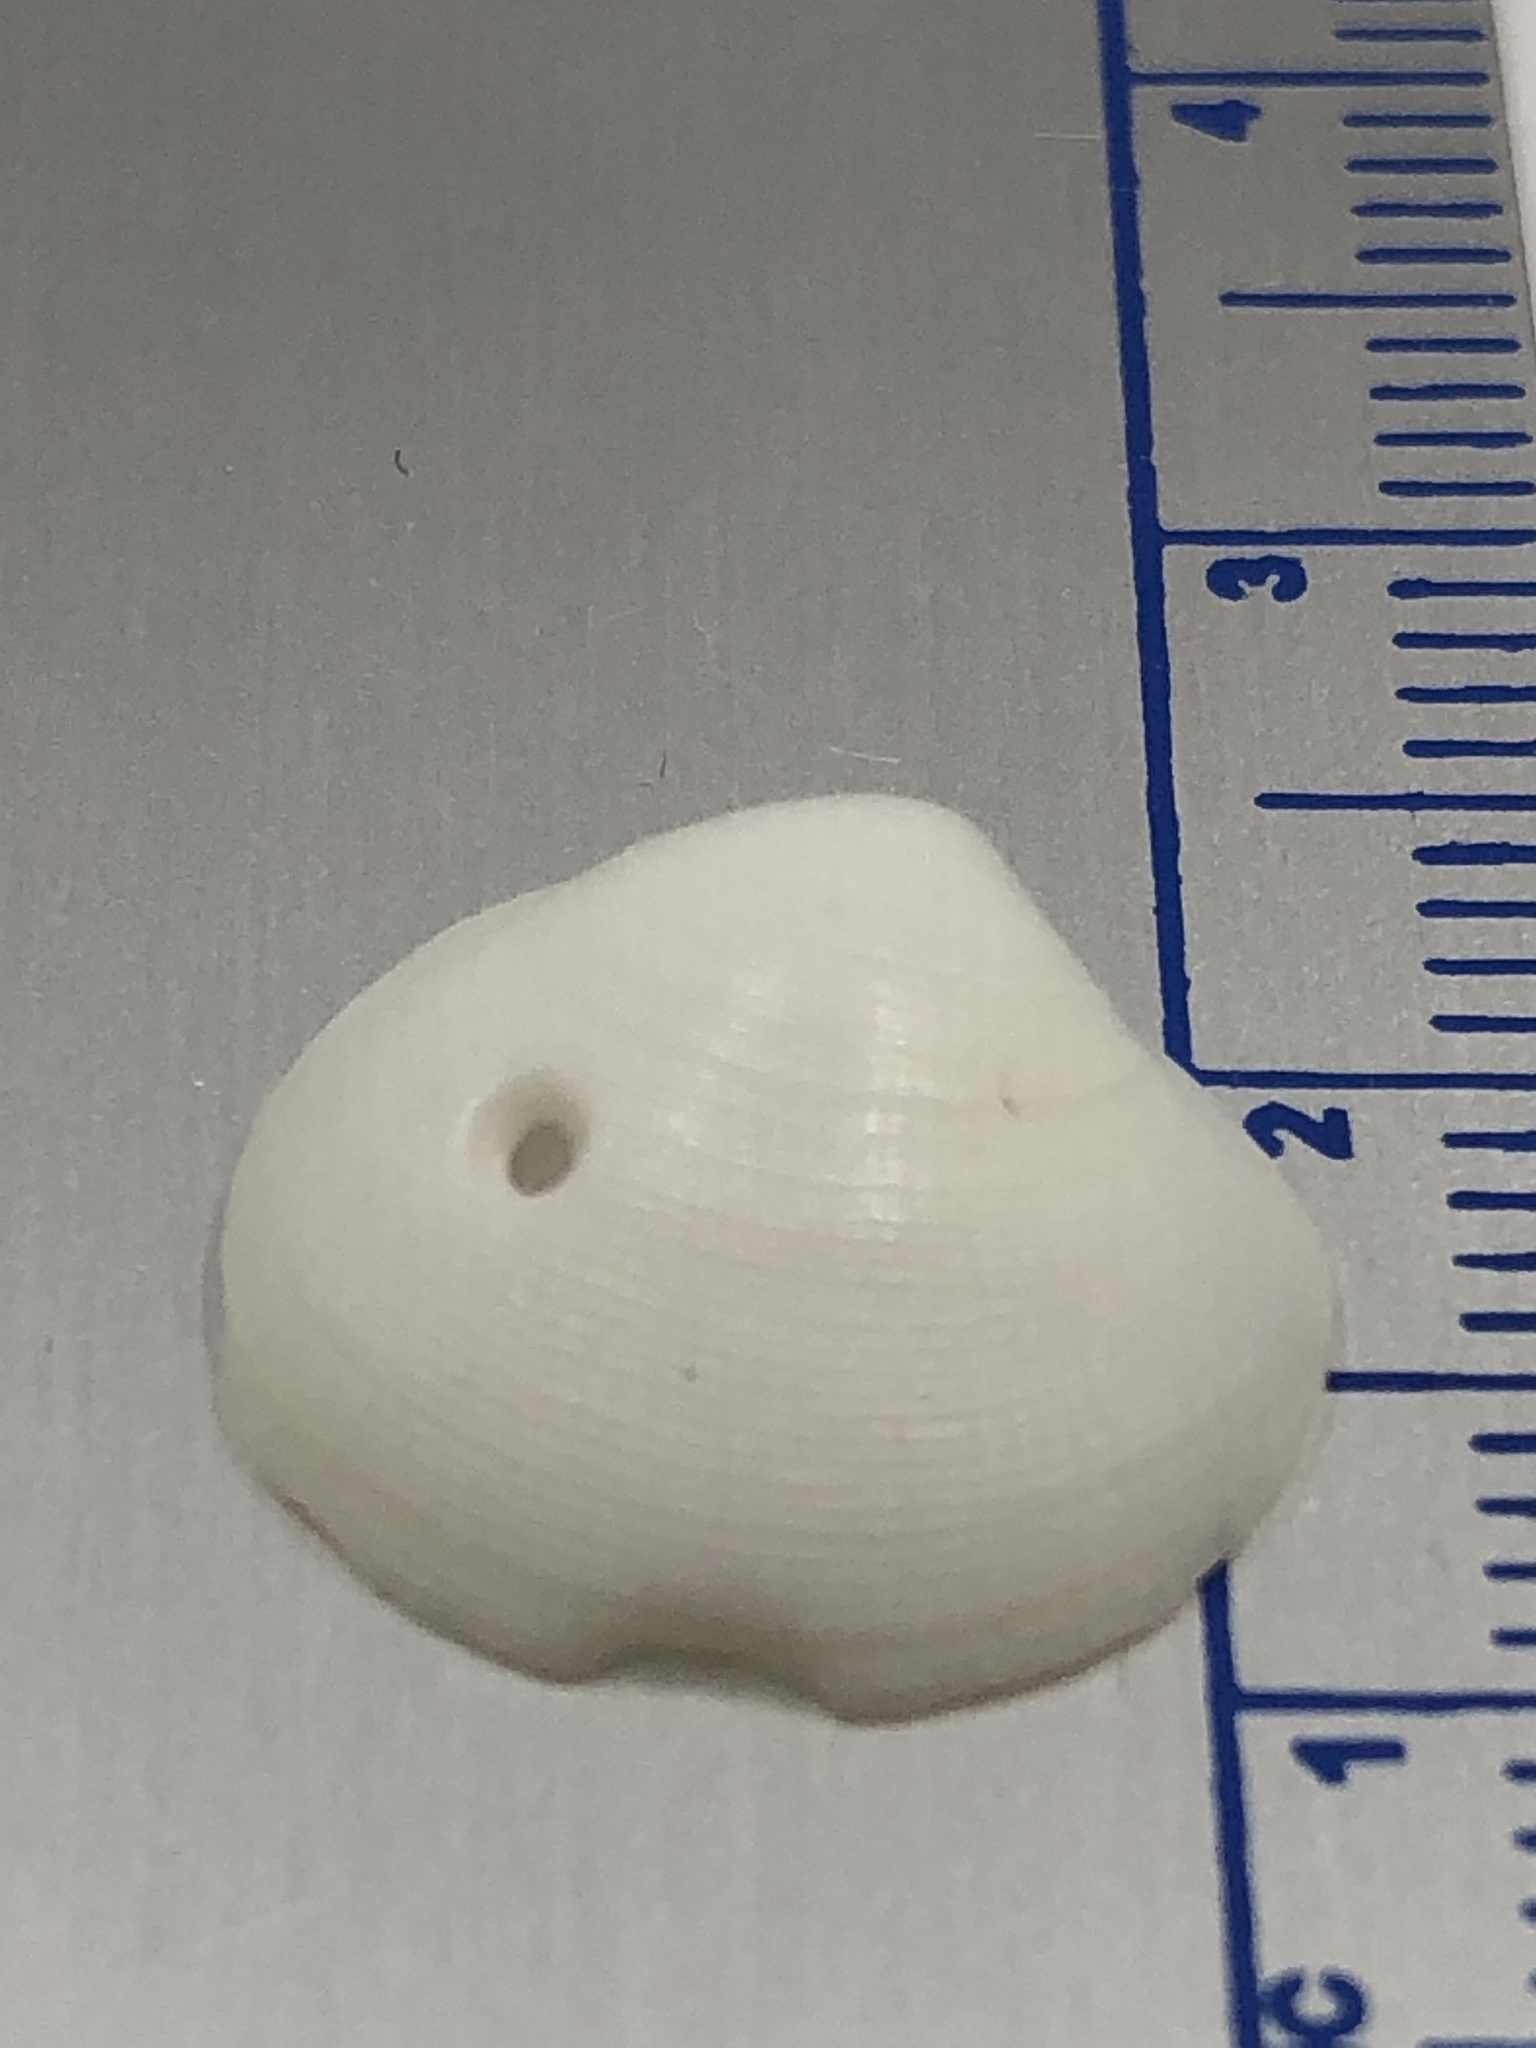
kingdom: Animalia
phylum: Mollusca
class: Bivalvia
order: Lucinida
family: Lucinidae
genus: Callucina
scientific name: Callucina keenae
